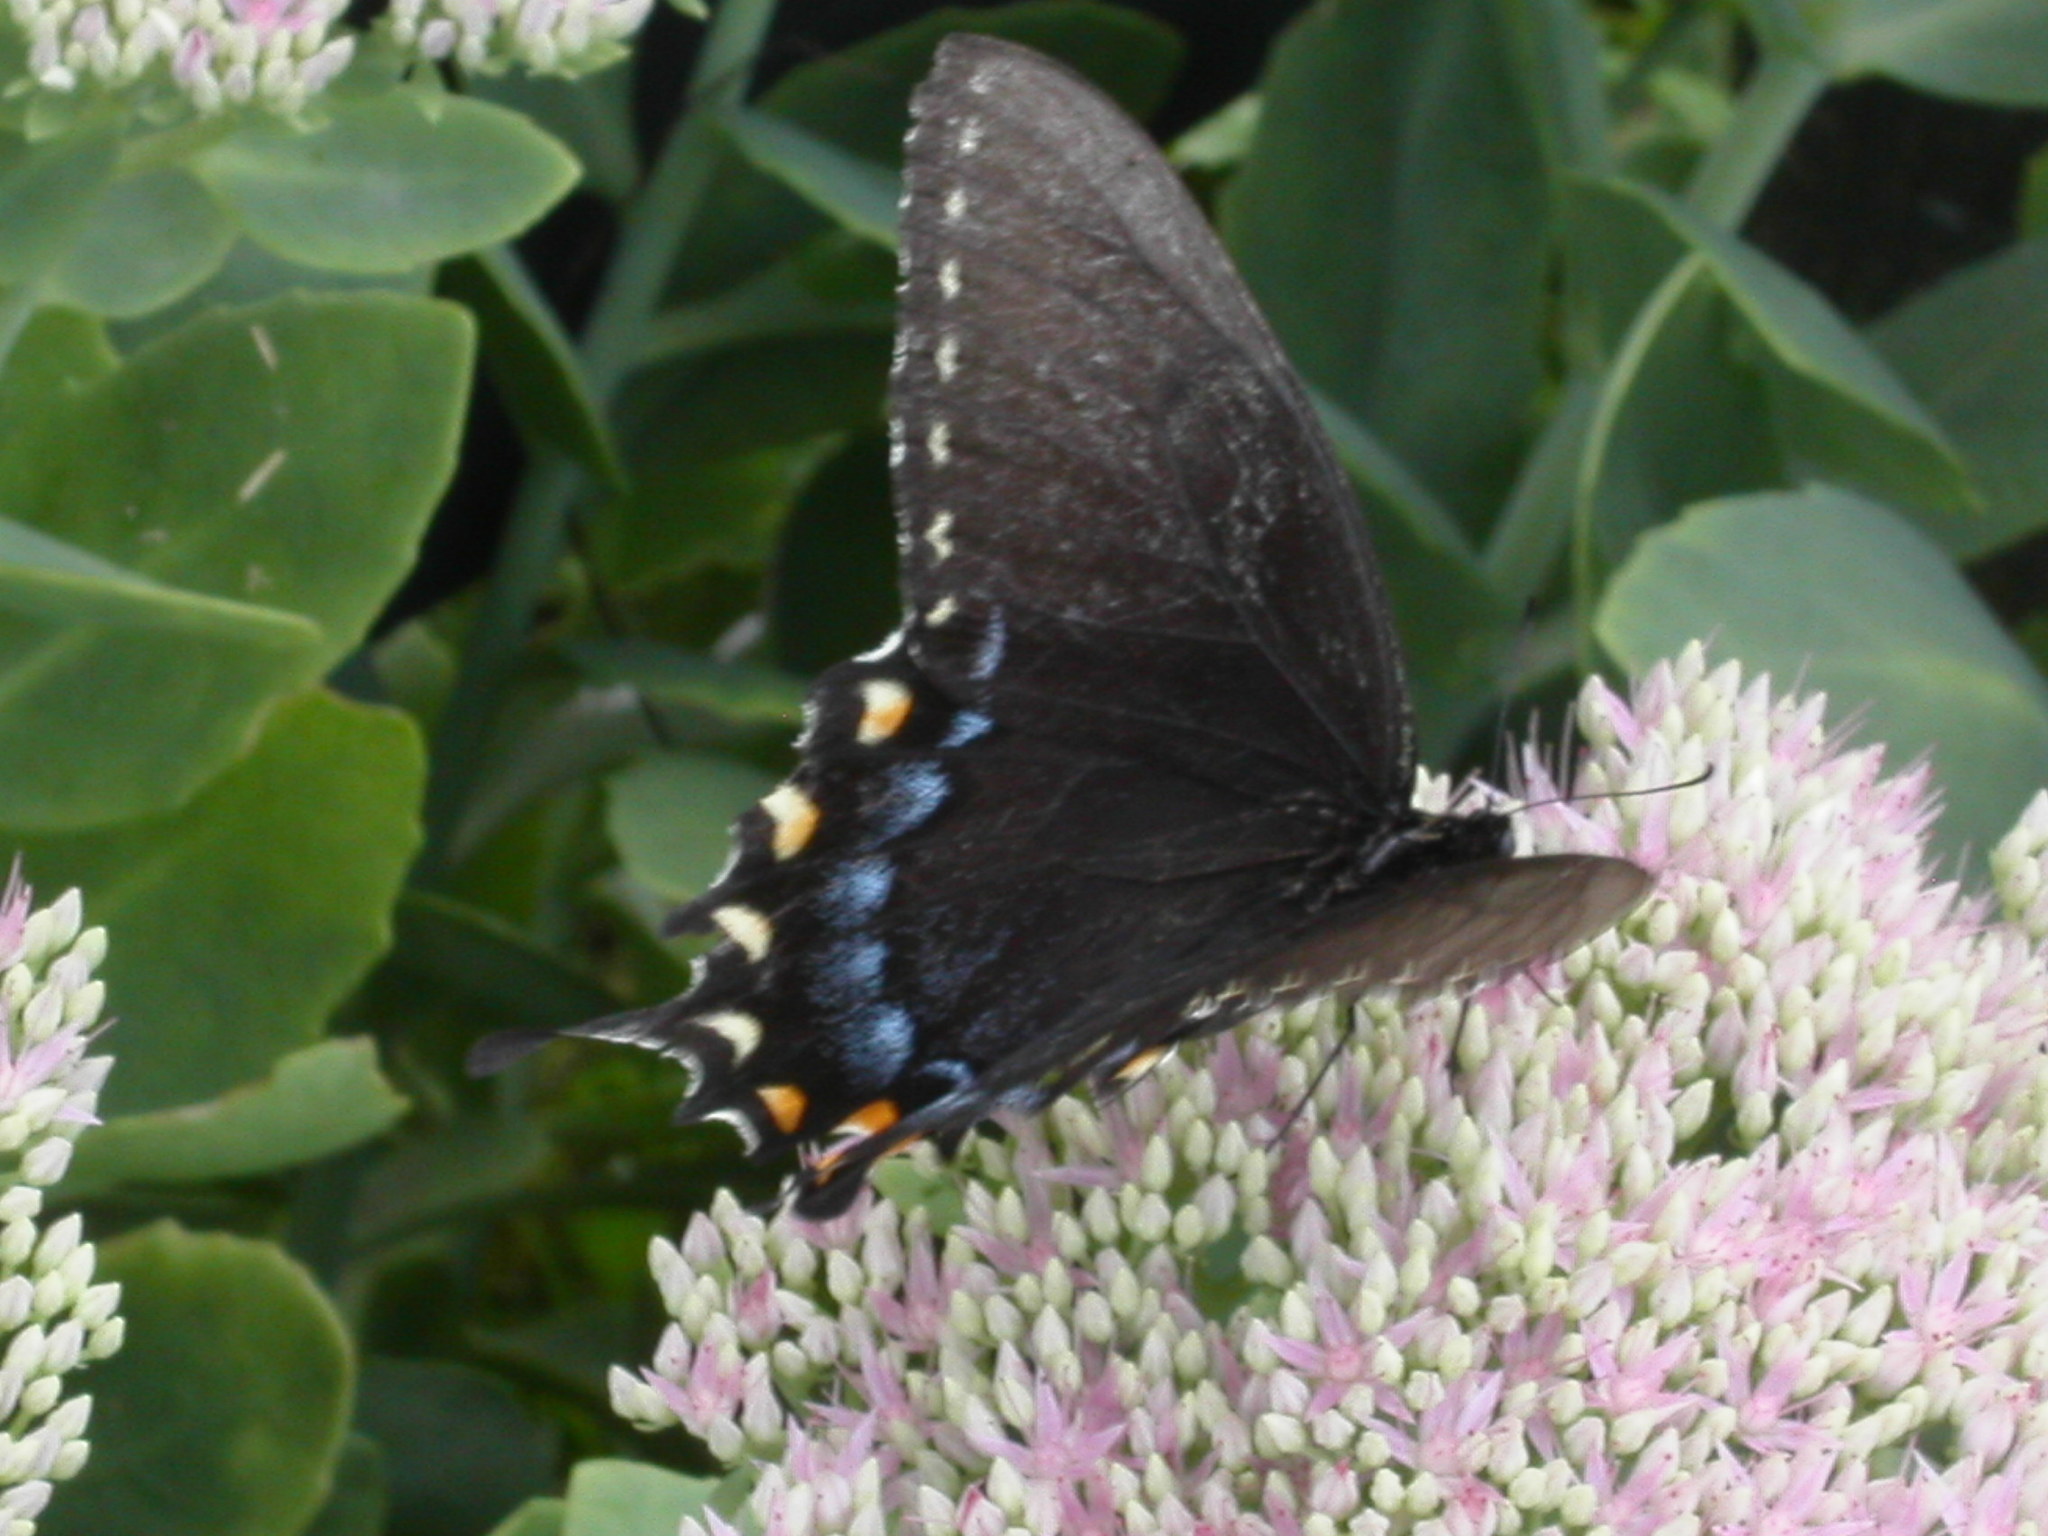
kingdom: Animalia
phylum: Arthropoda
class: Insecta
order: Lepidoptera
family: Papilionidae
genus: Papilio
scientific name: Papilio glaucus
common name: Tiger swallowtail
